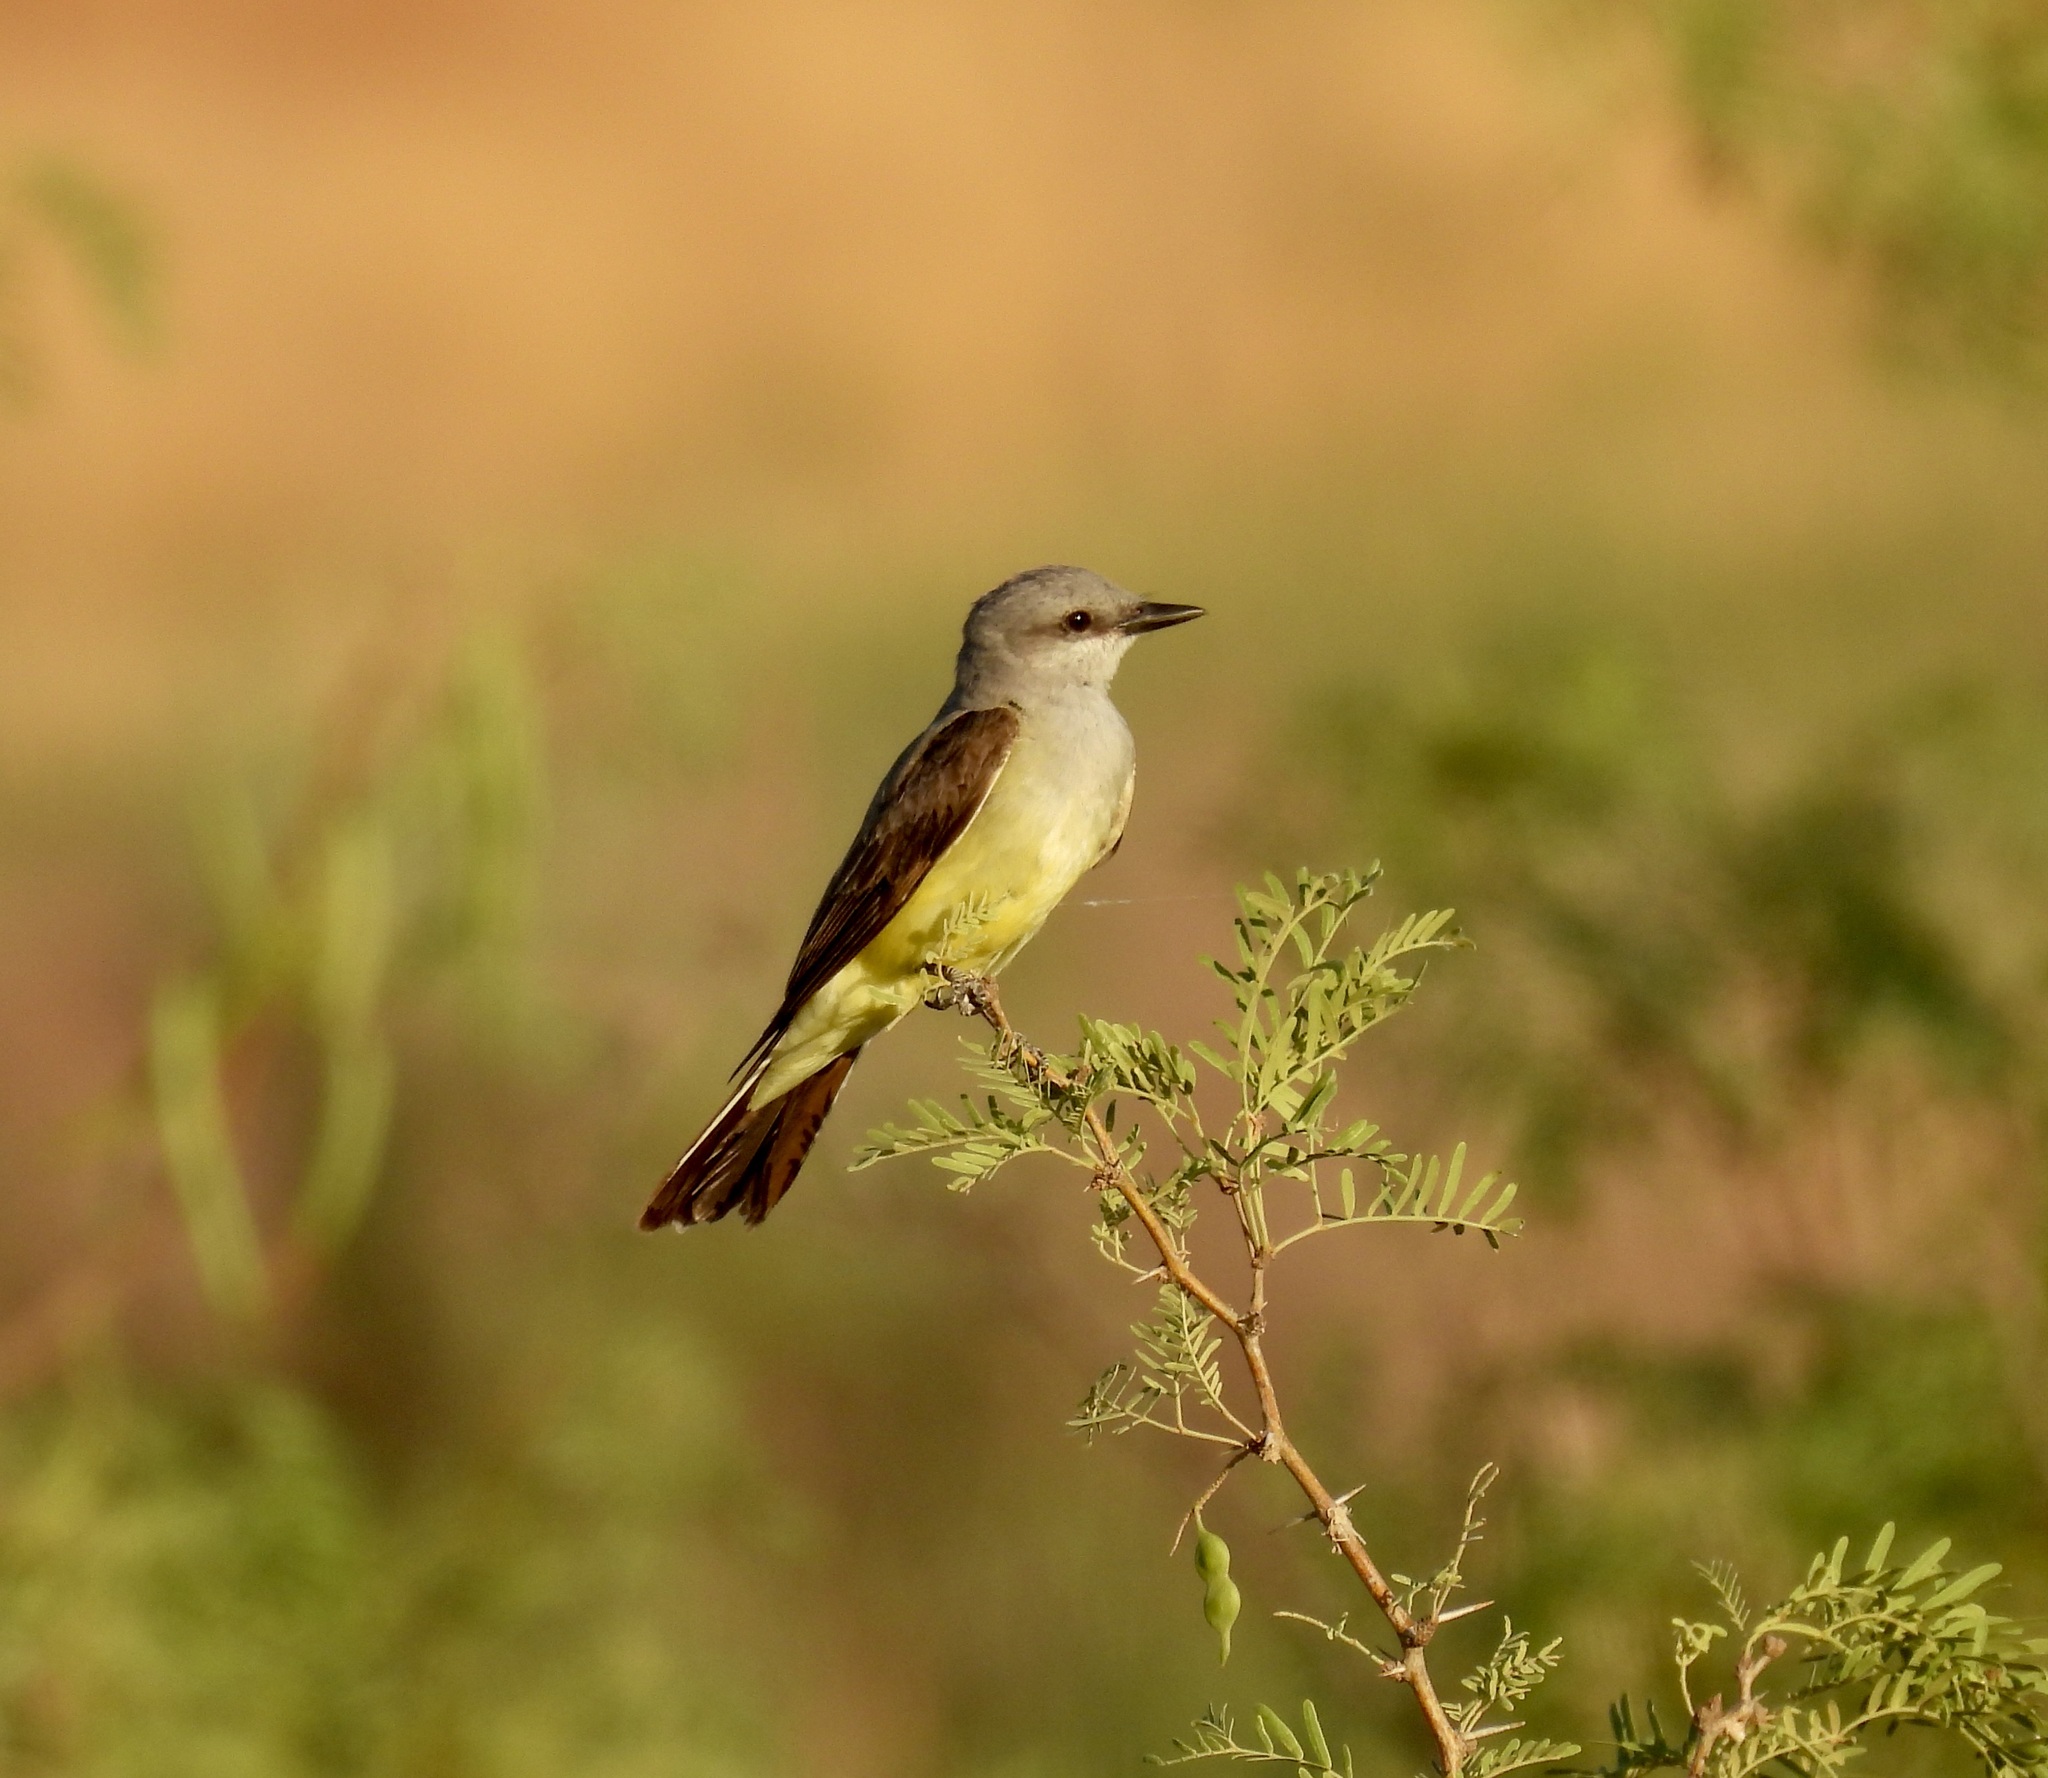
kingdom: Animalia
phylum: Chordata
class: Aves
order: Passeriformes
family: Tyrannidae
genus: Tyrannus
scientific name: Tyrannus verticalis
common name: Western kingbird
